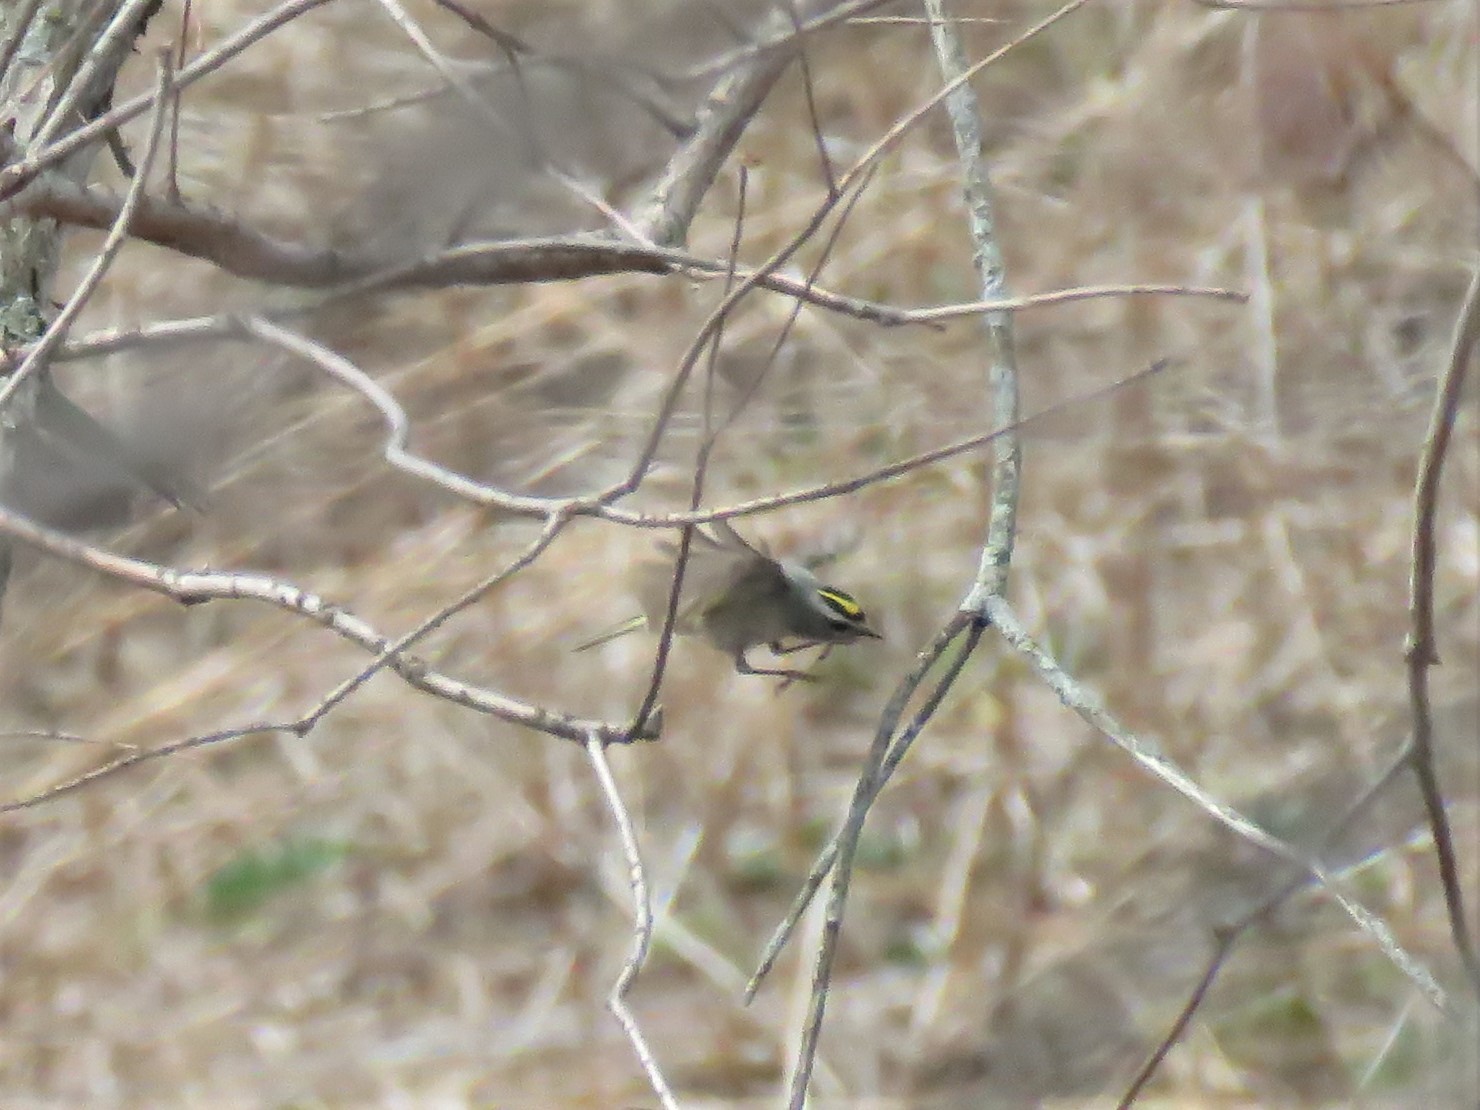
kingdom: Animalia
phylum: Chordata
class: Aves
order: Passeriformes
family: Regulidae
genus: Regulus
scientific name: Regulus satrapa
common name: Golden-crowned kinglet
